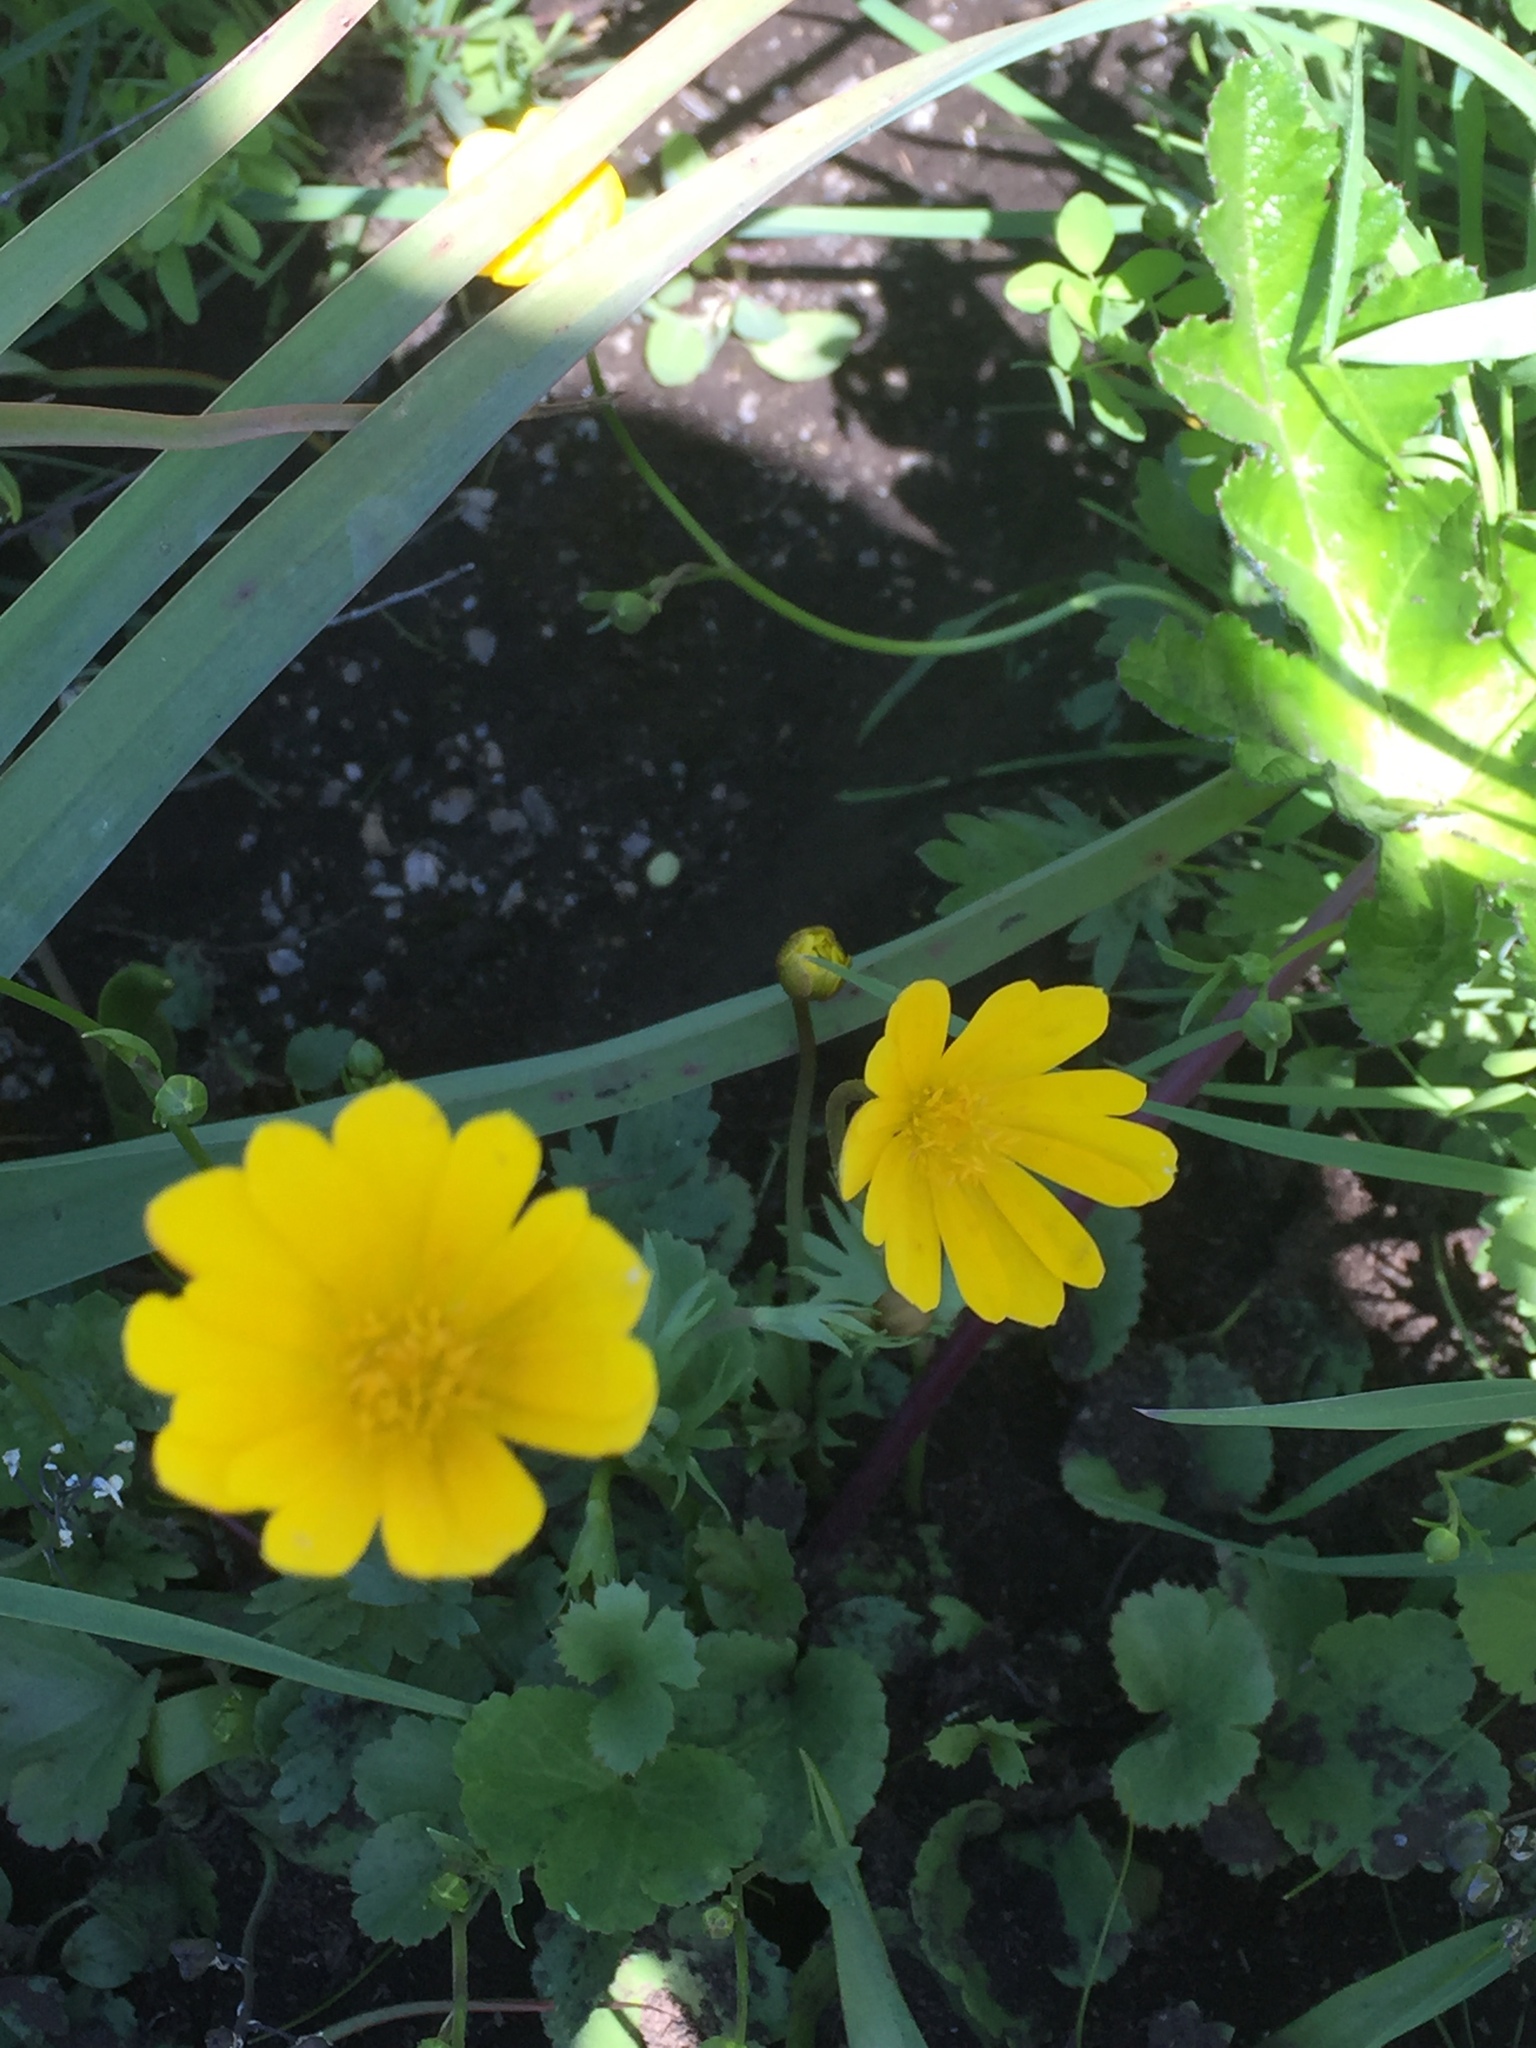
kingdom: Plantae
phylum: Tracheophyta
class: Magnoliopsida
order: Ranunculales
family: Ranunculaceae
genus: Anemone
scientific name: Anemone palmata
